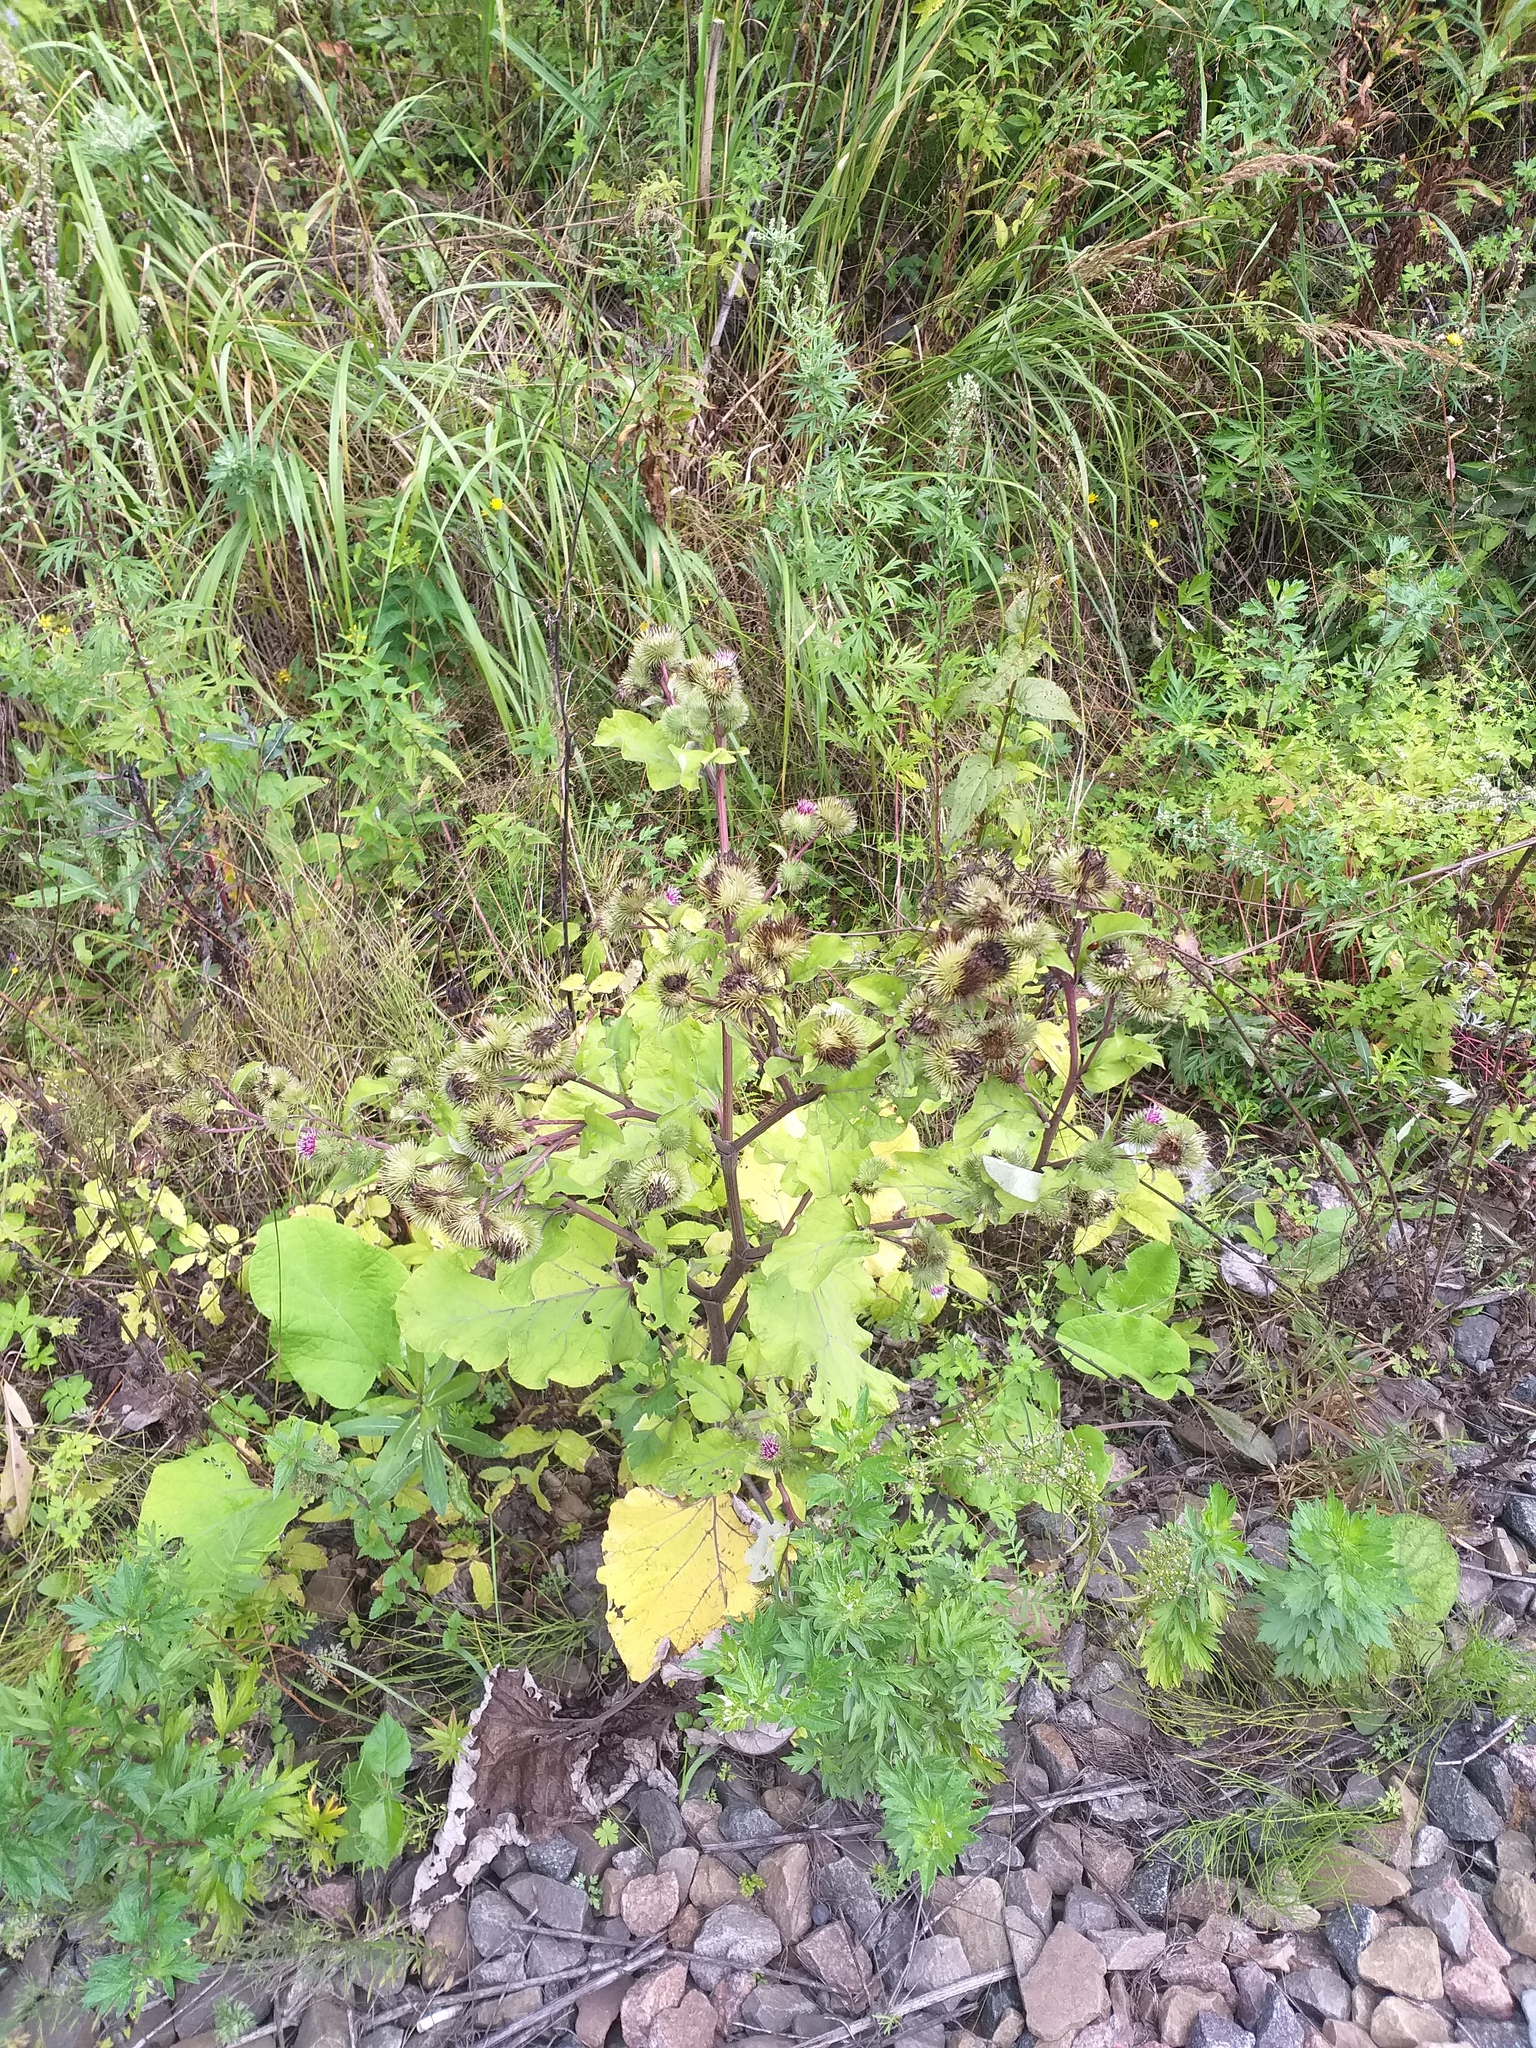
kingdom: Plantae
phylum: Tracheophyta
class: Magnoliopsida
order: Asterales
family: Asteraceae
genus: Arctium
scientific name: Arctium lappa
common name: Greater burdock
